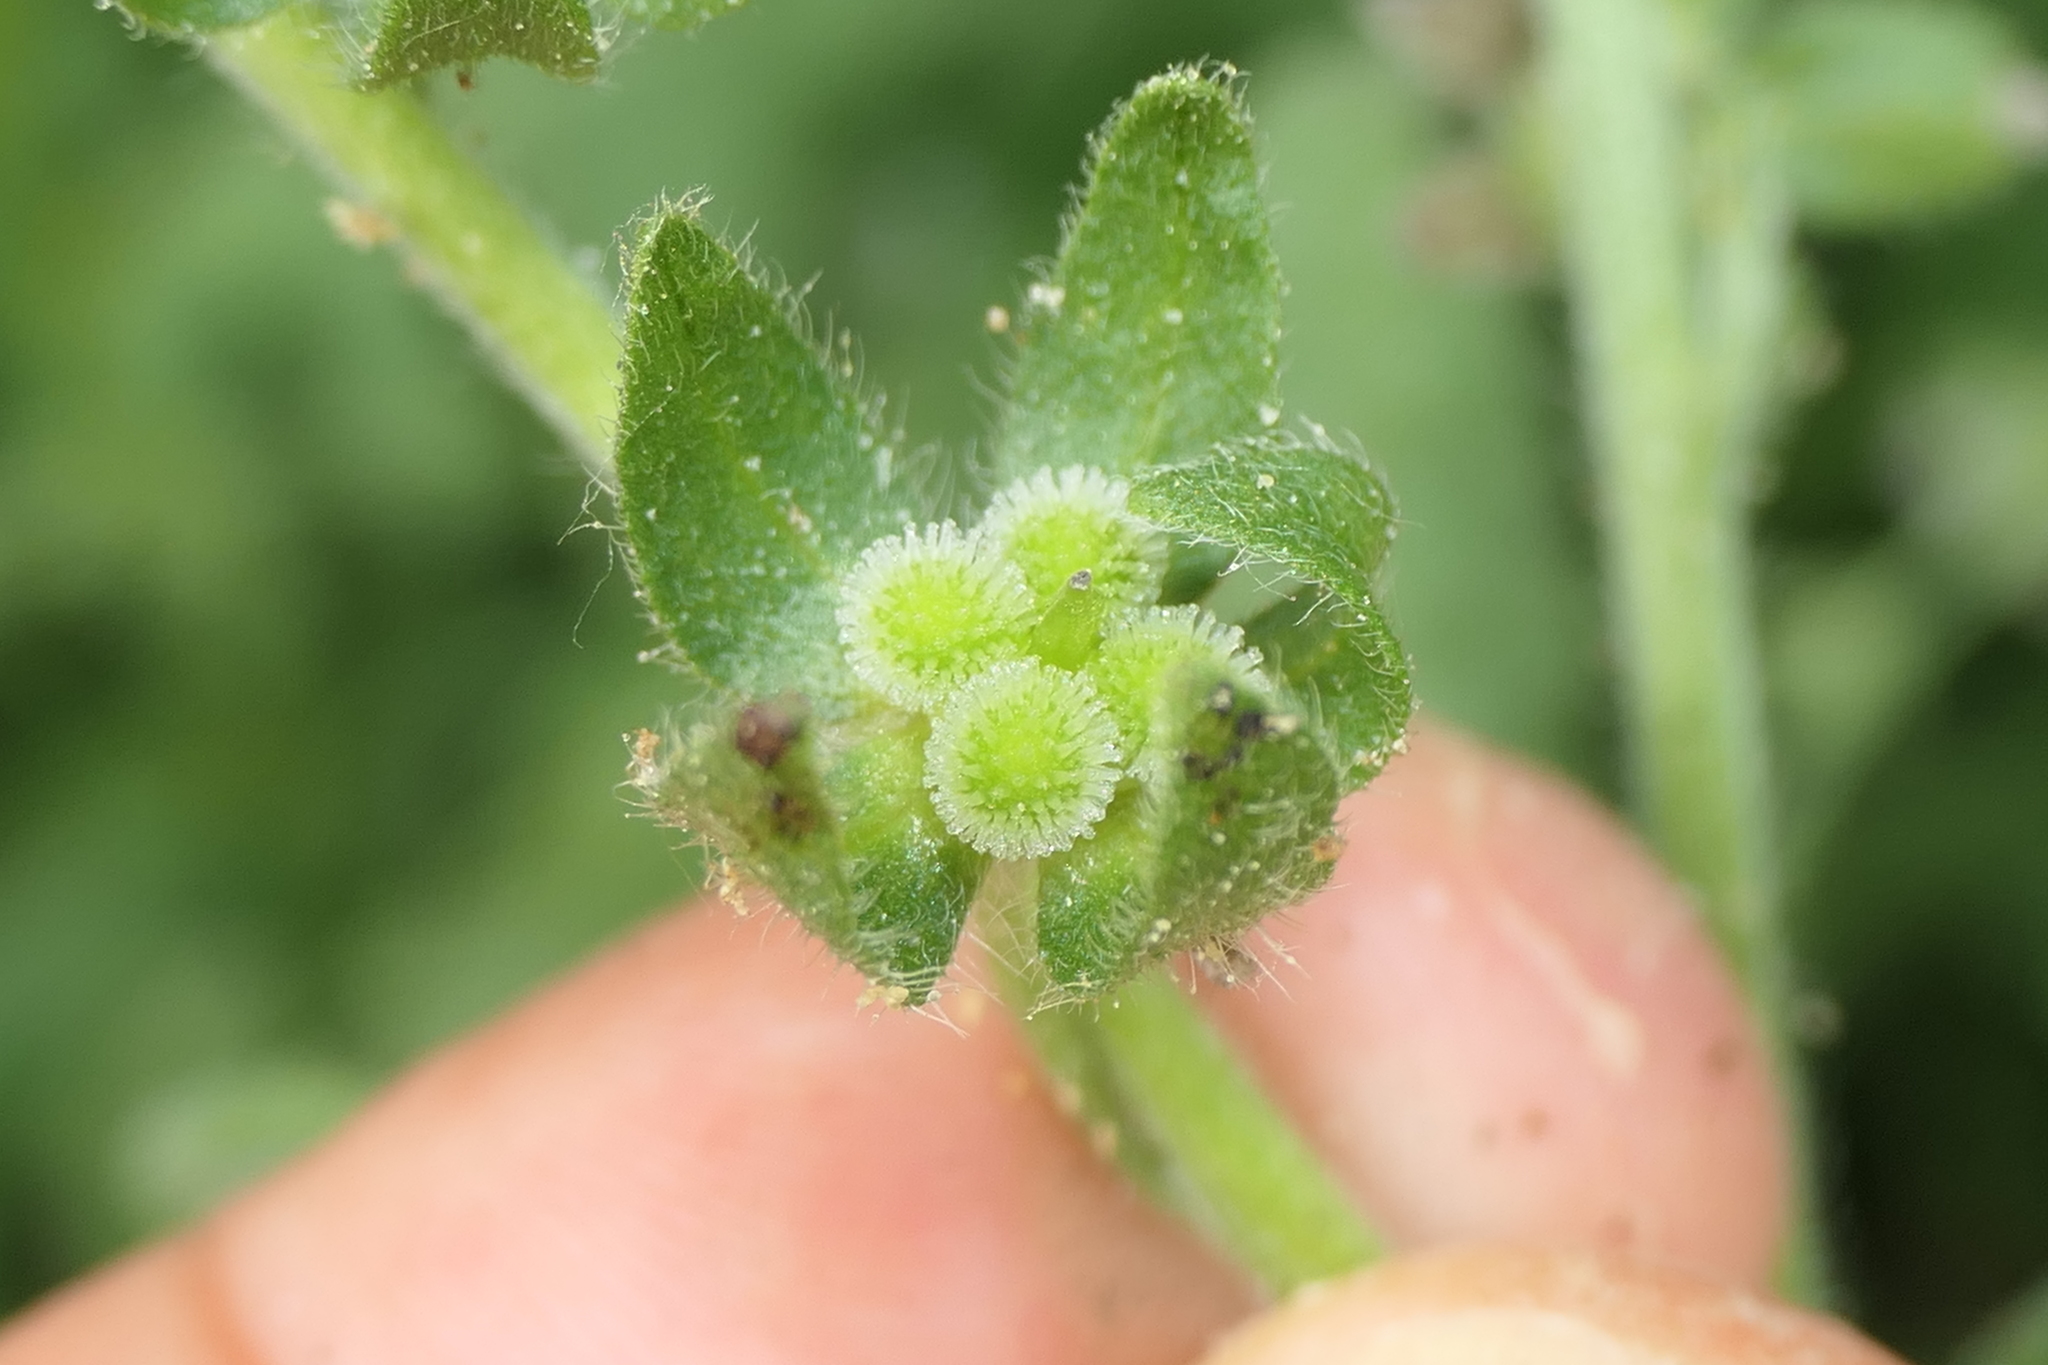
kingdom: Plantae
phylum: Tracheophyta
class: Magnoliopsida
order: Boraginales
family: Boraginaceae
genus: Cynoglossum
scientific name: Cynoglossum creticum
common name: Blue hound's tongue
